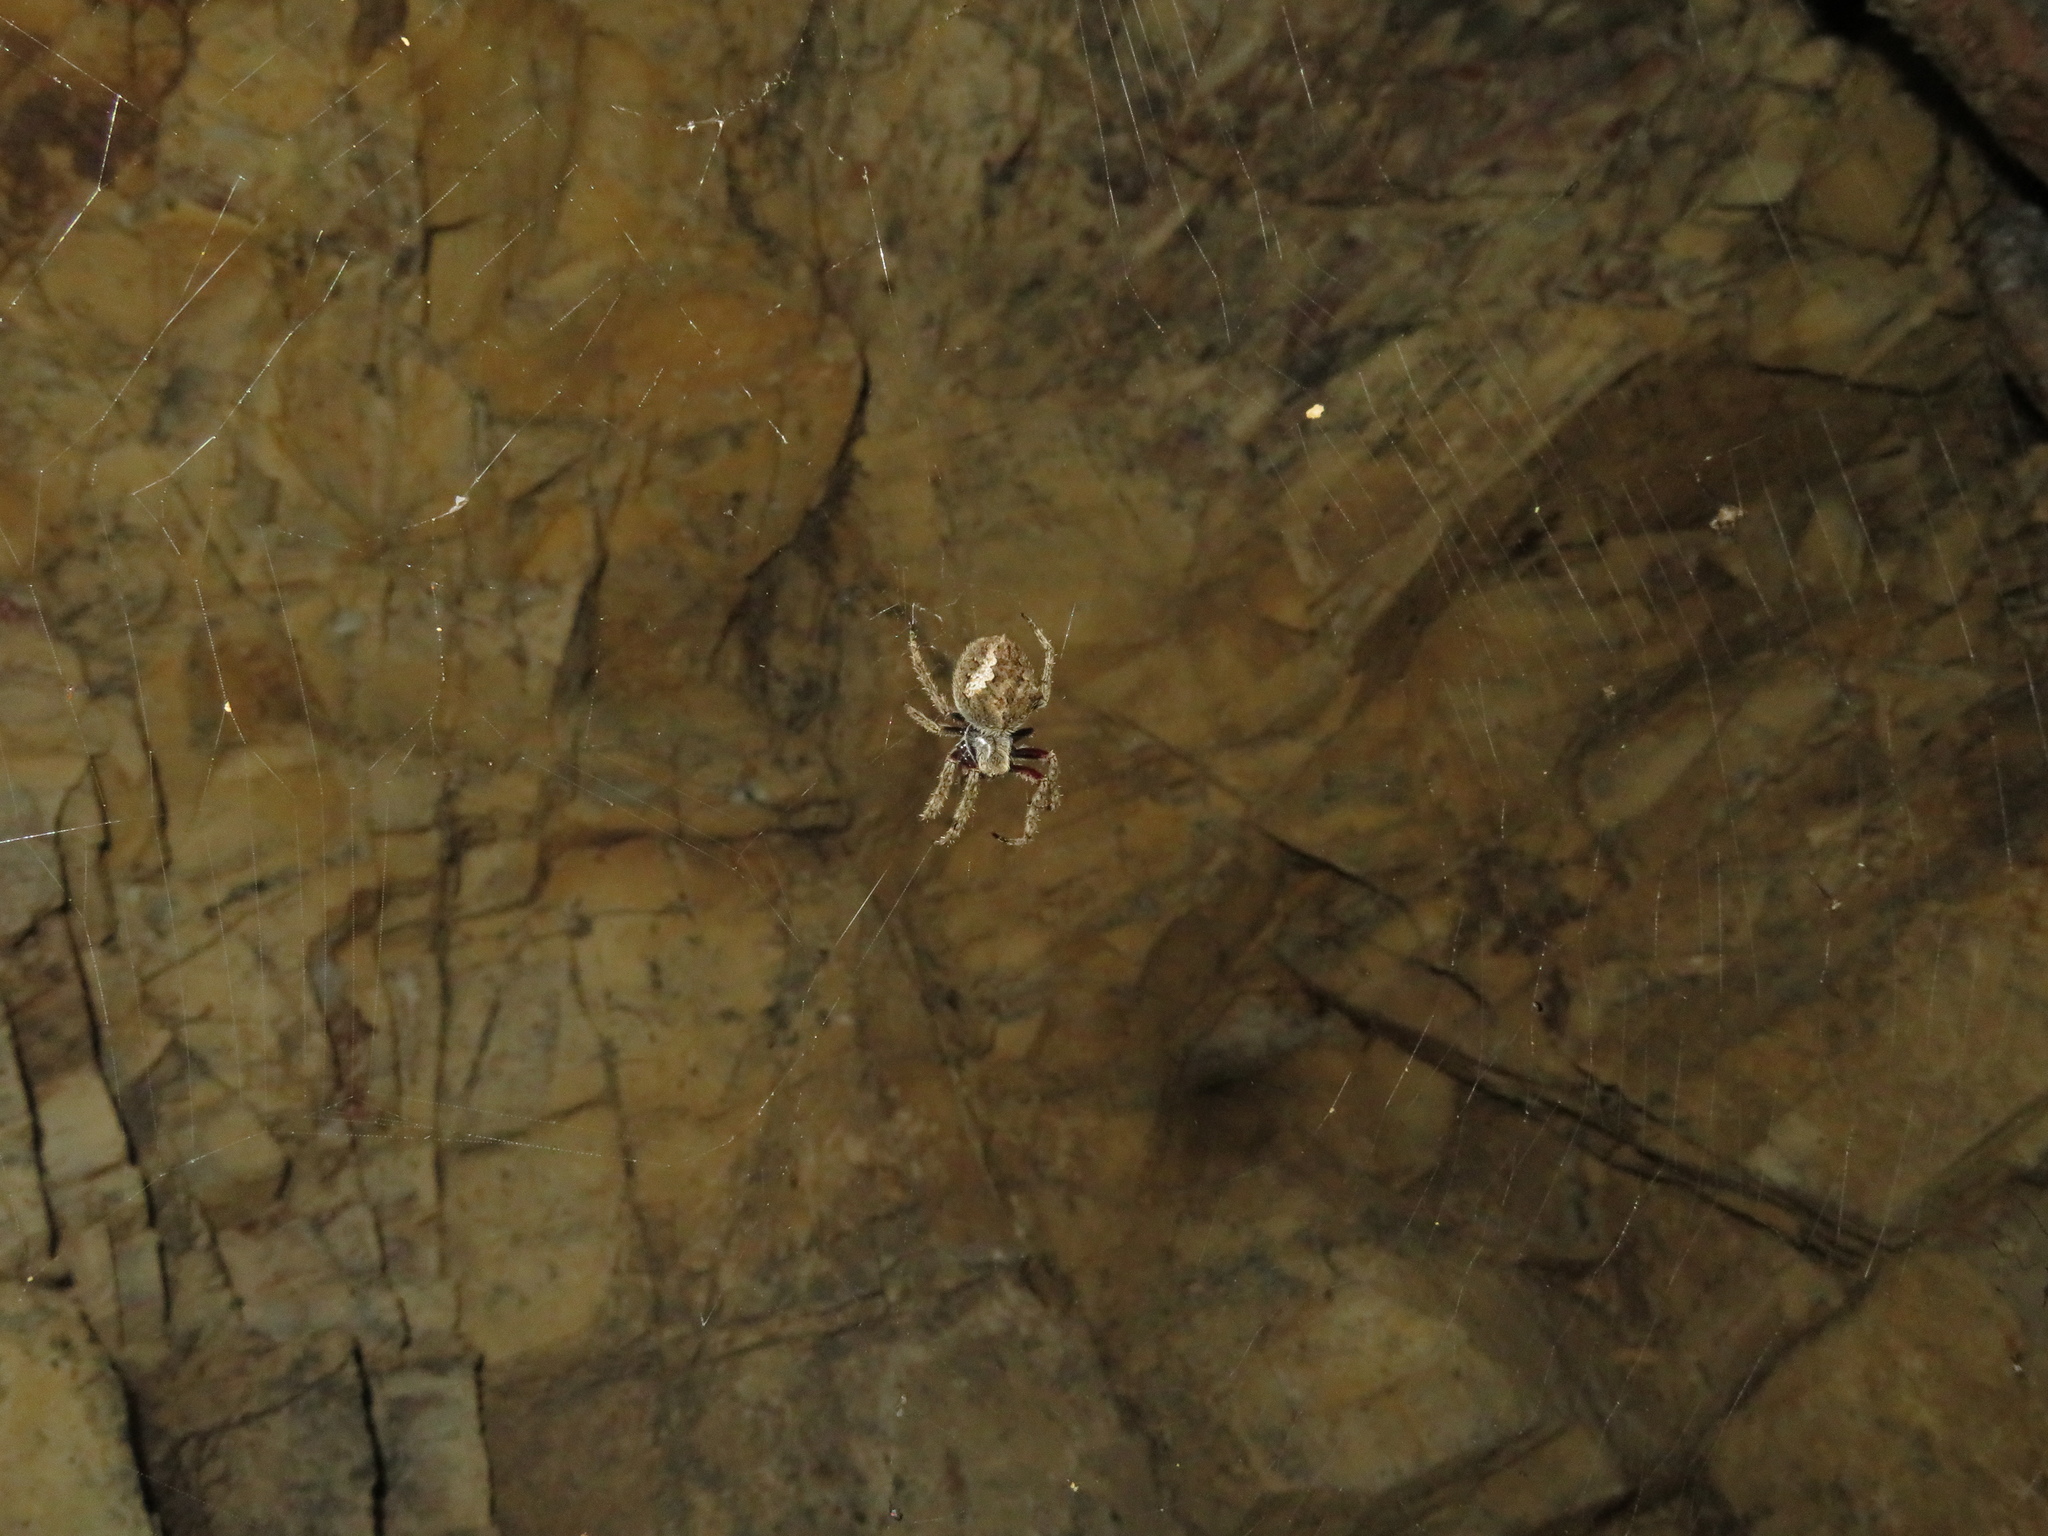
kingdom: Animalia
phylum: Arthropoda
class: Arachnida
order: Araneae
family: Araneidae
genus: Eriophora
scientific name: Eriophora pustulosa
